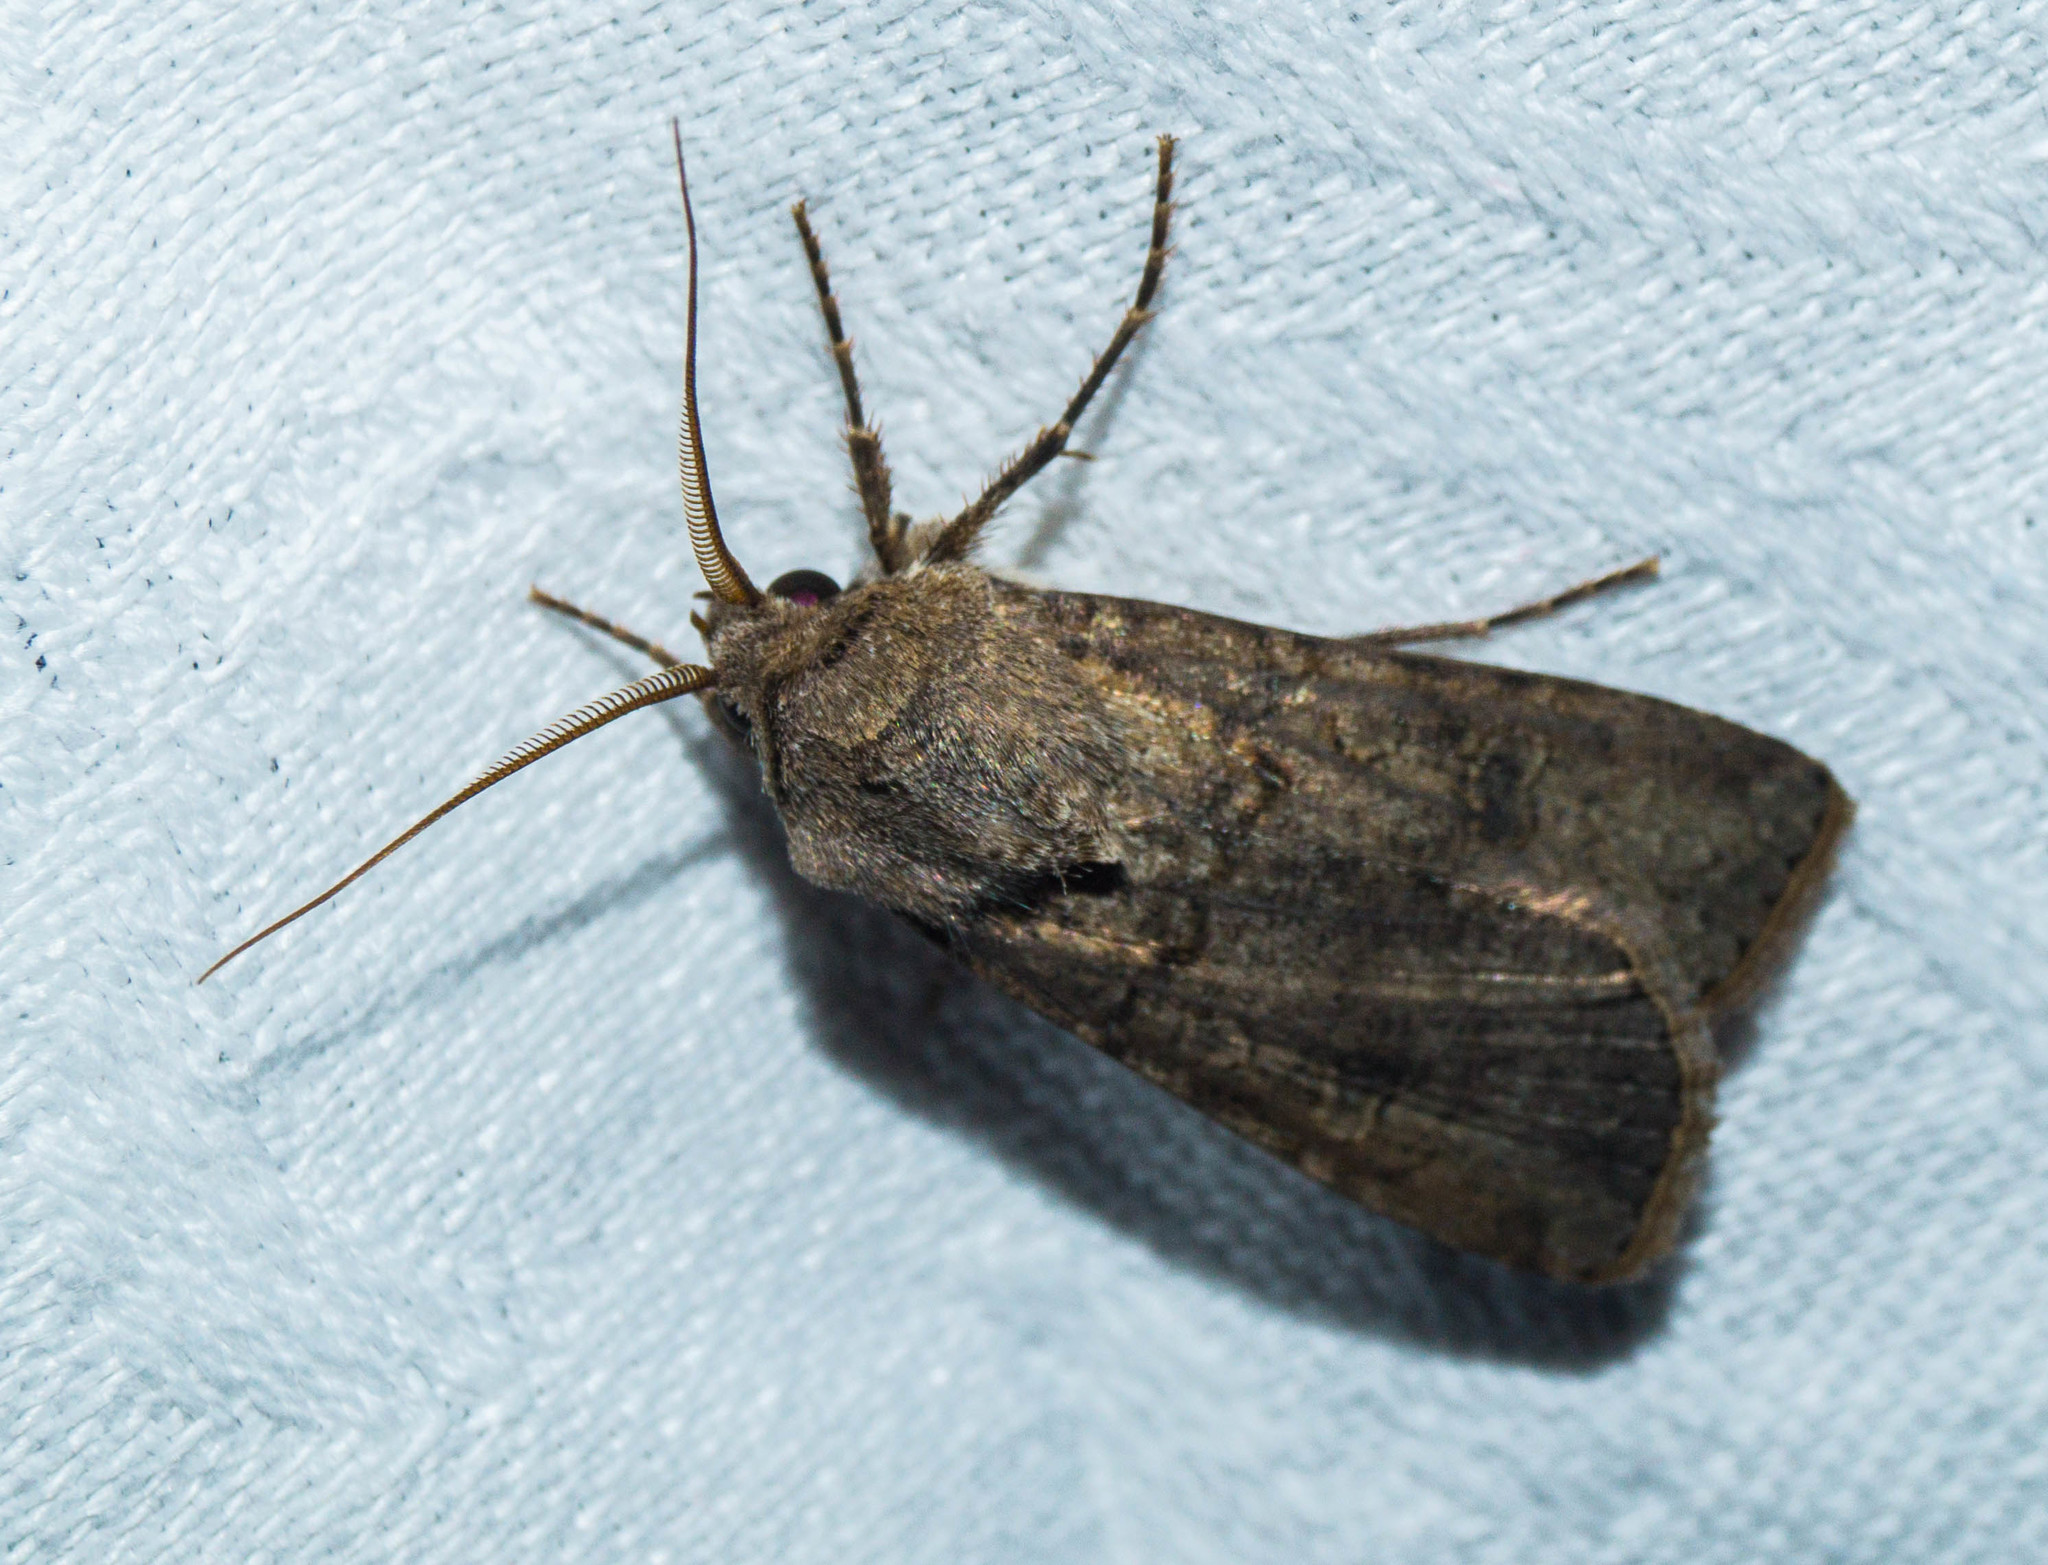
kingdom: Animalia
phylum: Arthropoda
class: Insecta
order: Lepidoptera
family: Noctuidae
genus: Agrotis
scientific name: Agrotis segetum
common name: Turnip moth
